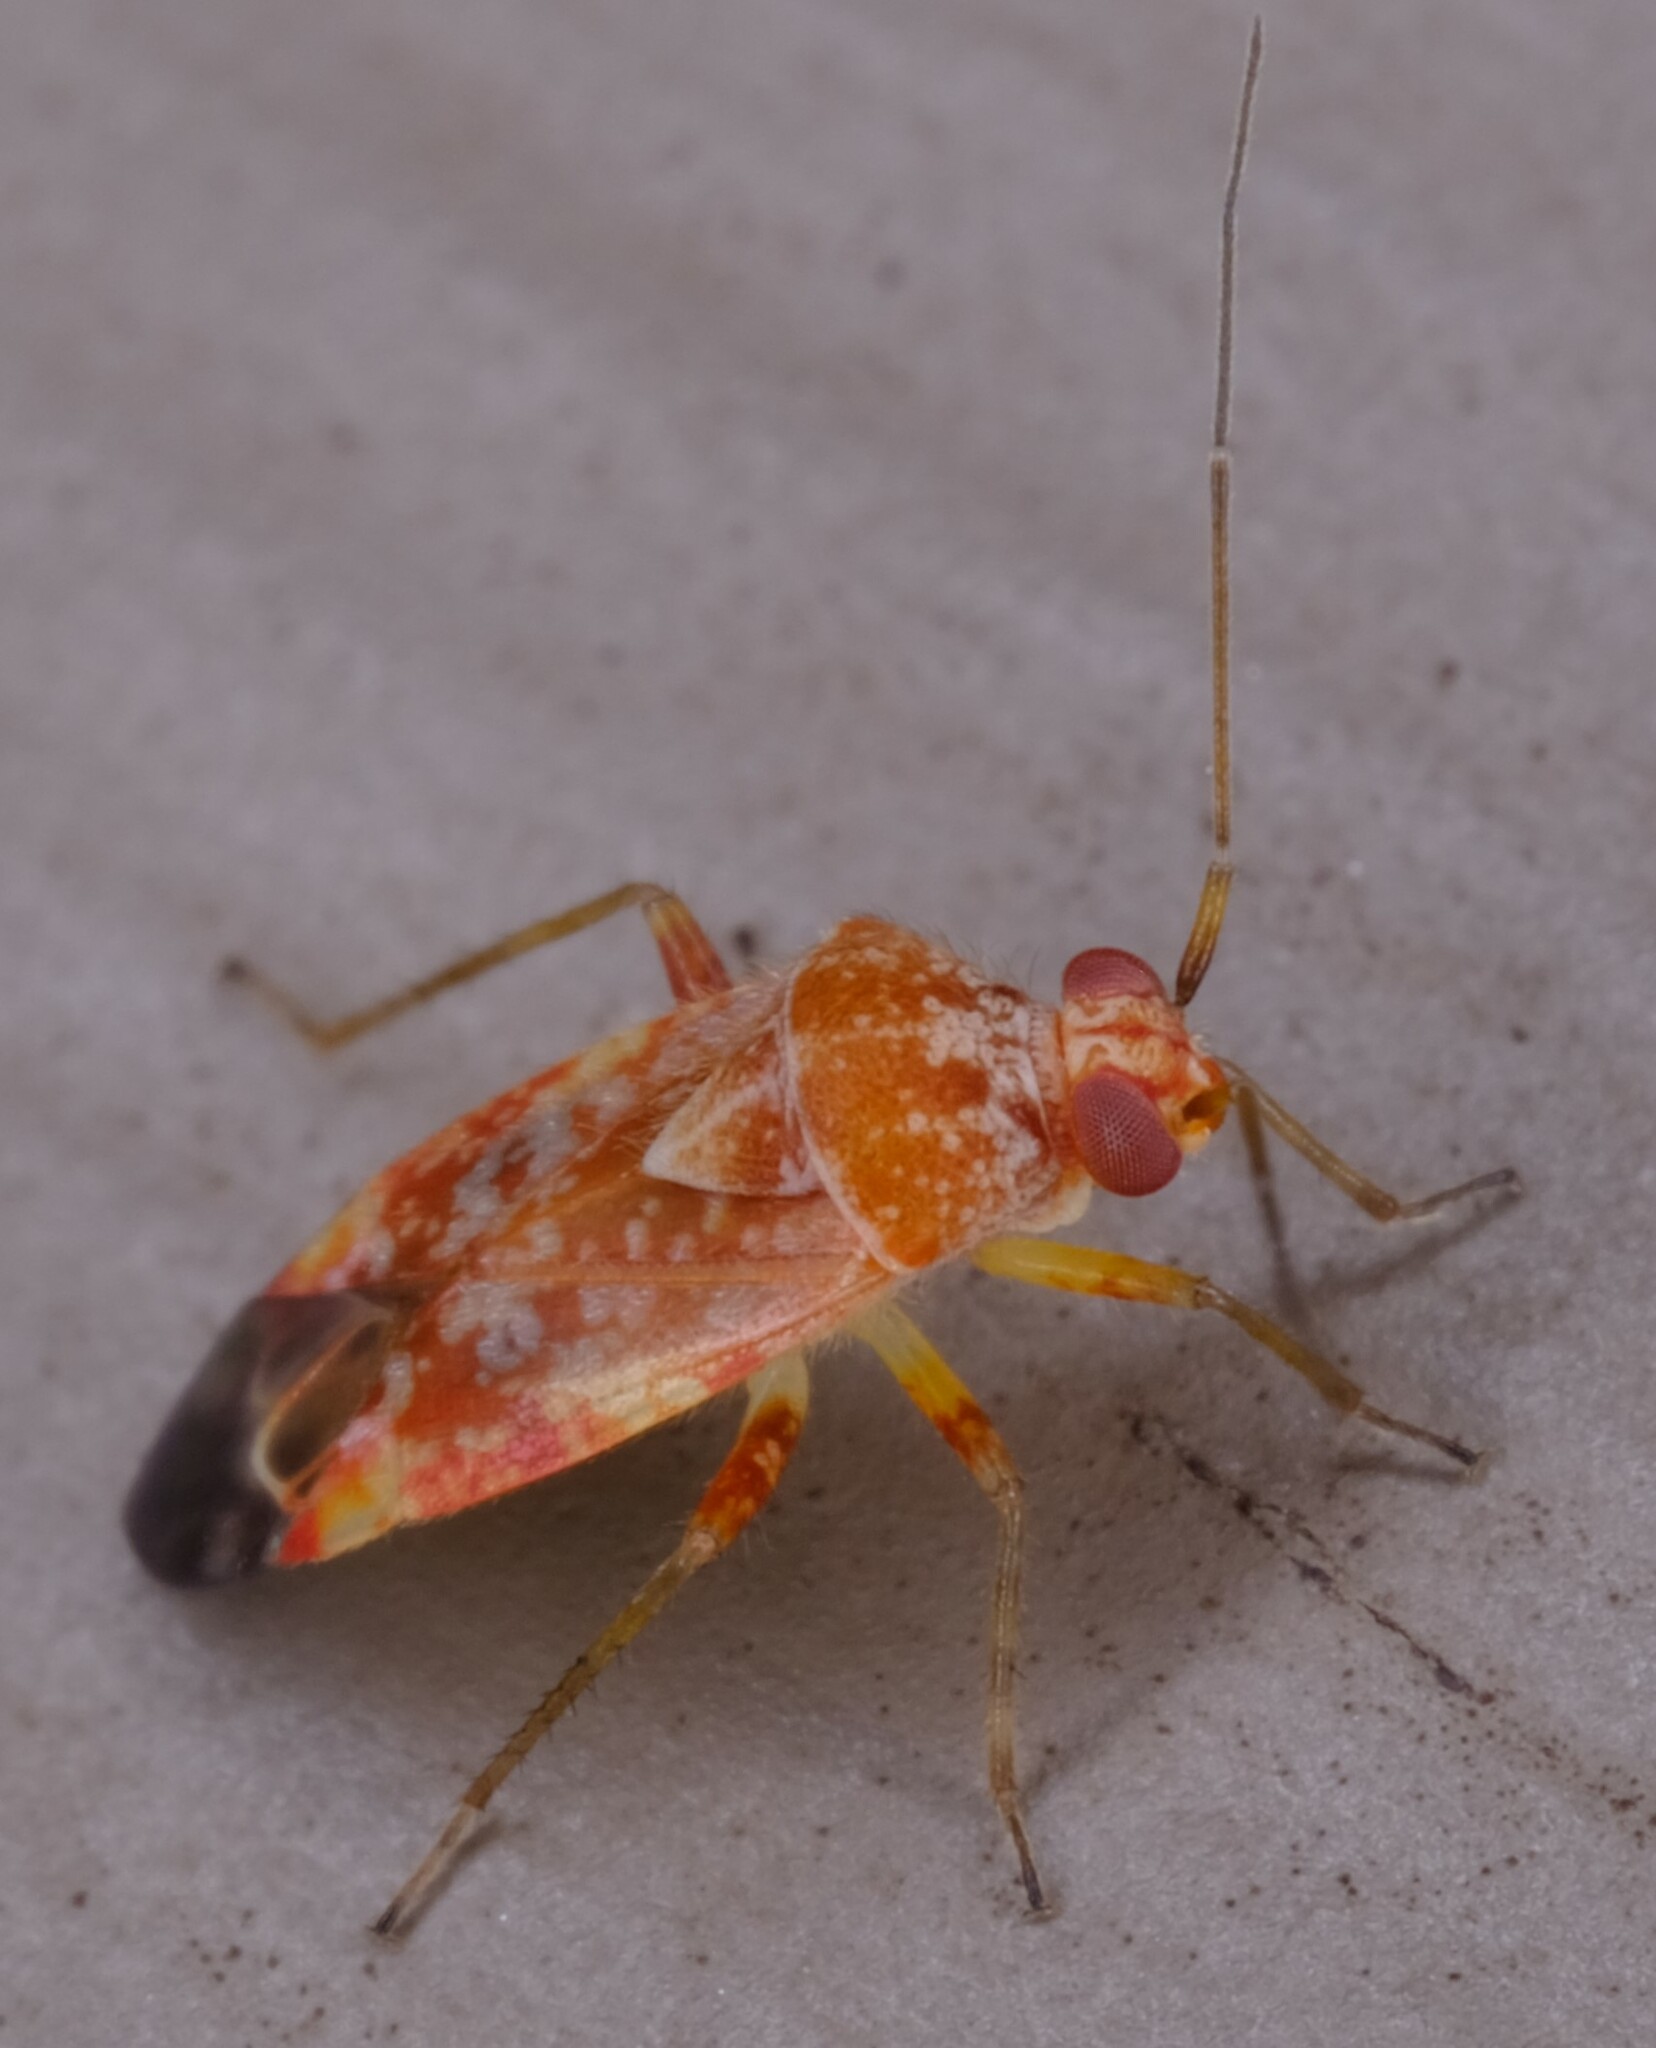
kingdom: Animalia
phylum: Arthropoda
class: Insecta
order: Hemiptera
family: Miridae
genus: Tinginotum
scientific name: Tinginotum minutum
